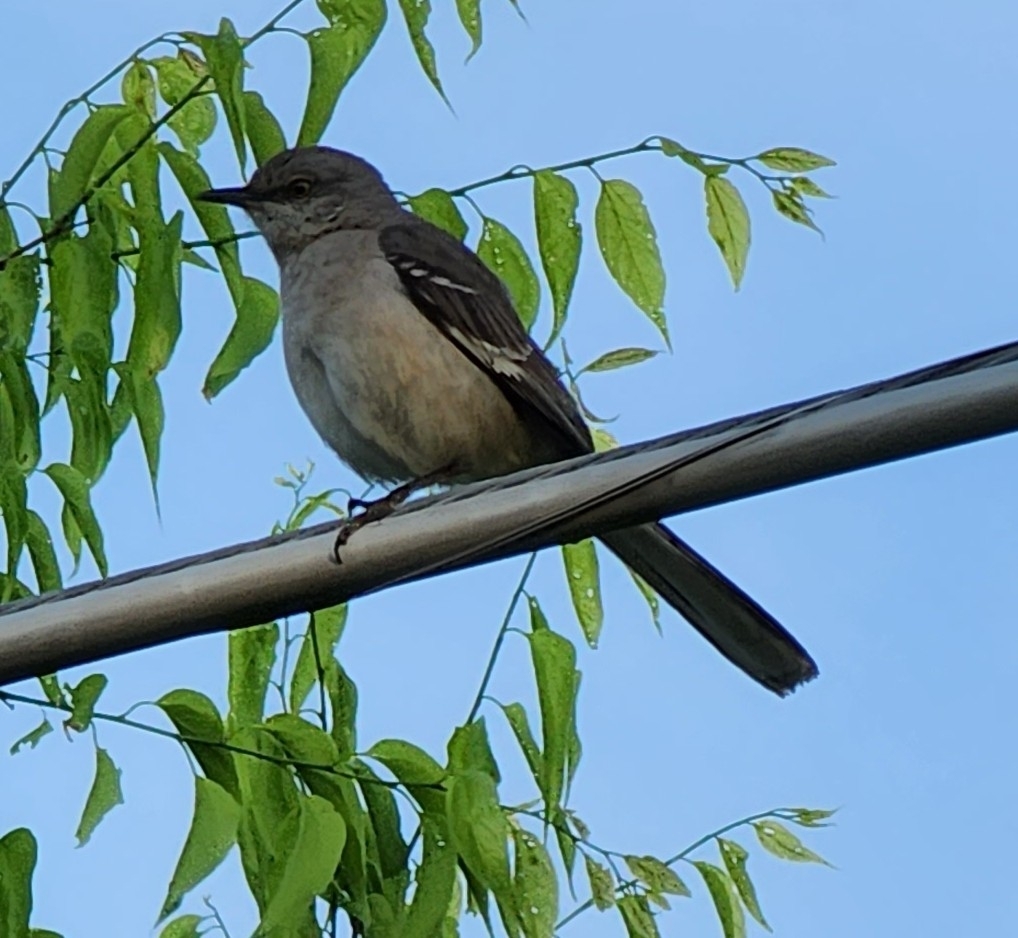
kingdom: Animalia
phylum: Chordata
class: Aves
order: Passeriformes
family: Mimidae
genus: Mimus
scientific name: Mimus polyglottos
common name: Northern mockingbird
